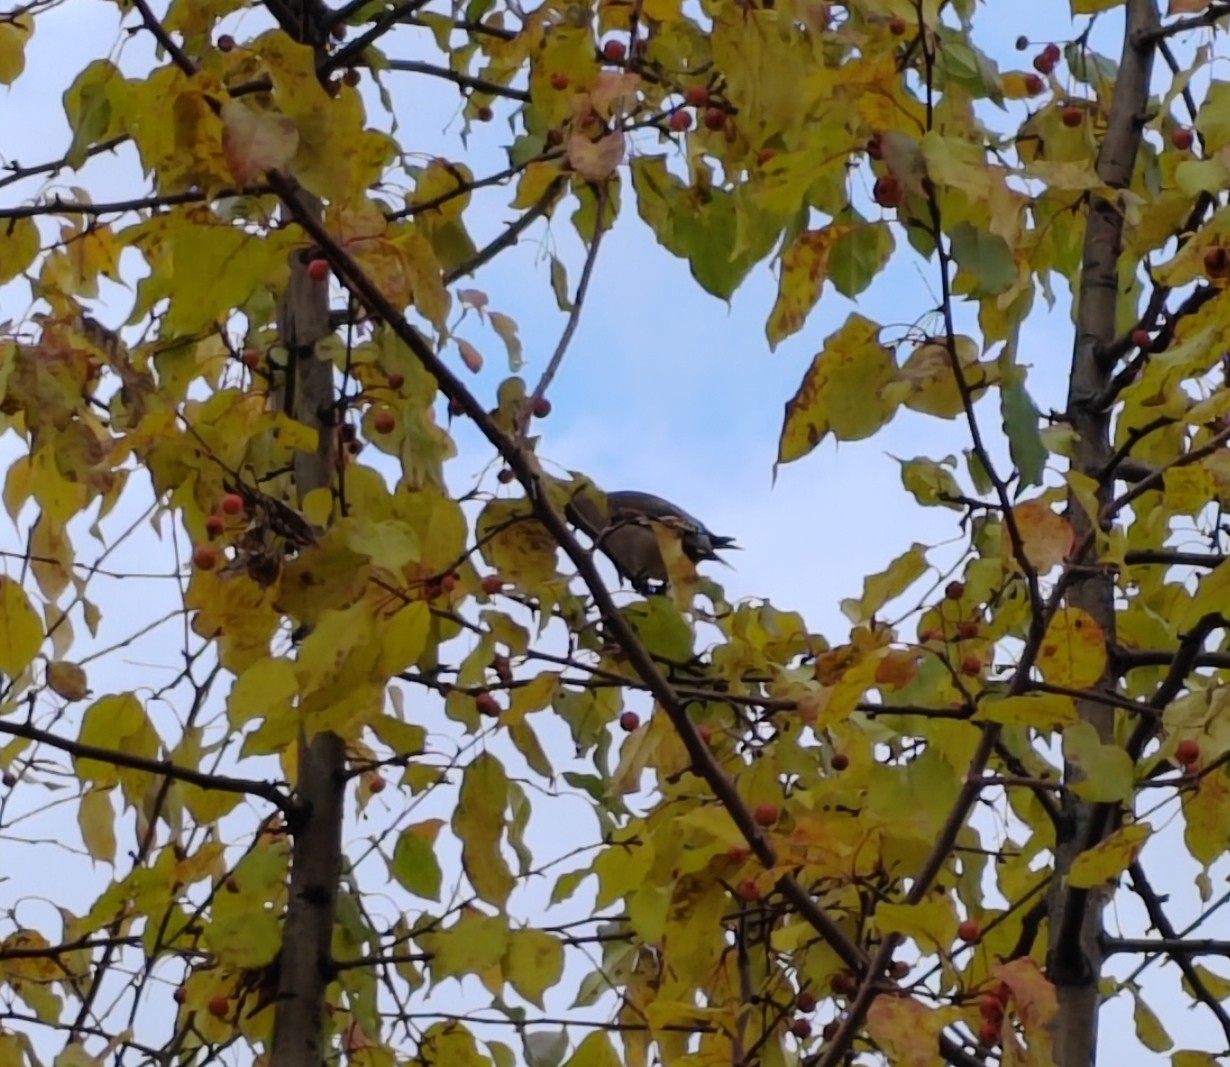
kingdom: Animalia
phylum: Chordata
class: Aves
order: Passeriformes
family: Bombycillidae
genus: Bombycilla
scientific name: Bombycilla garrulus
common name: Bohemian waxwing
